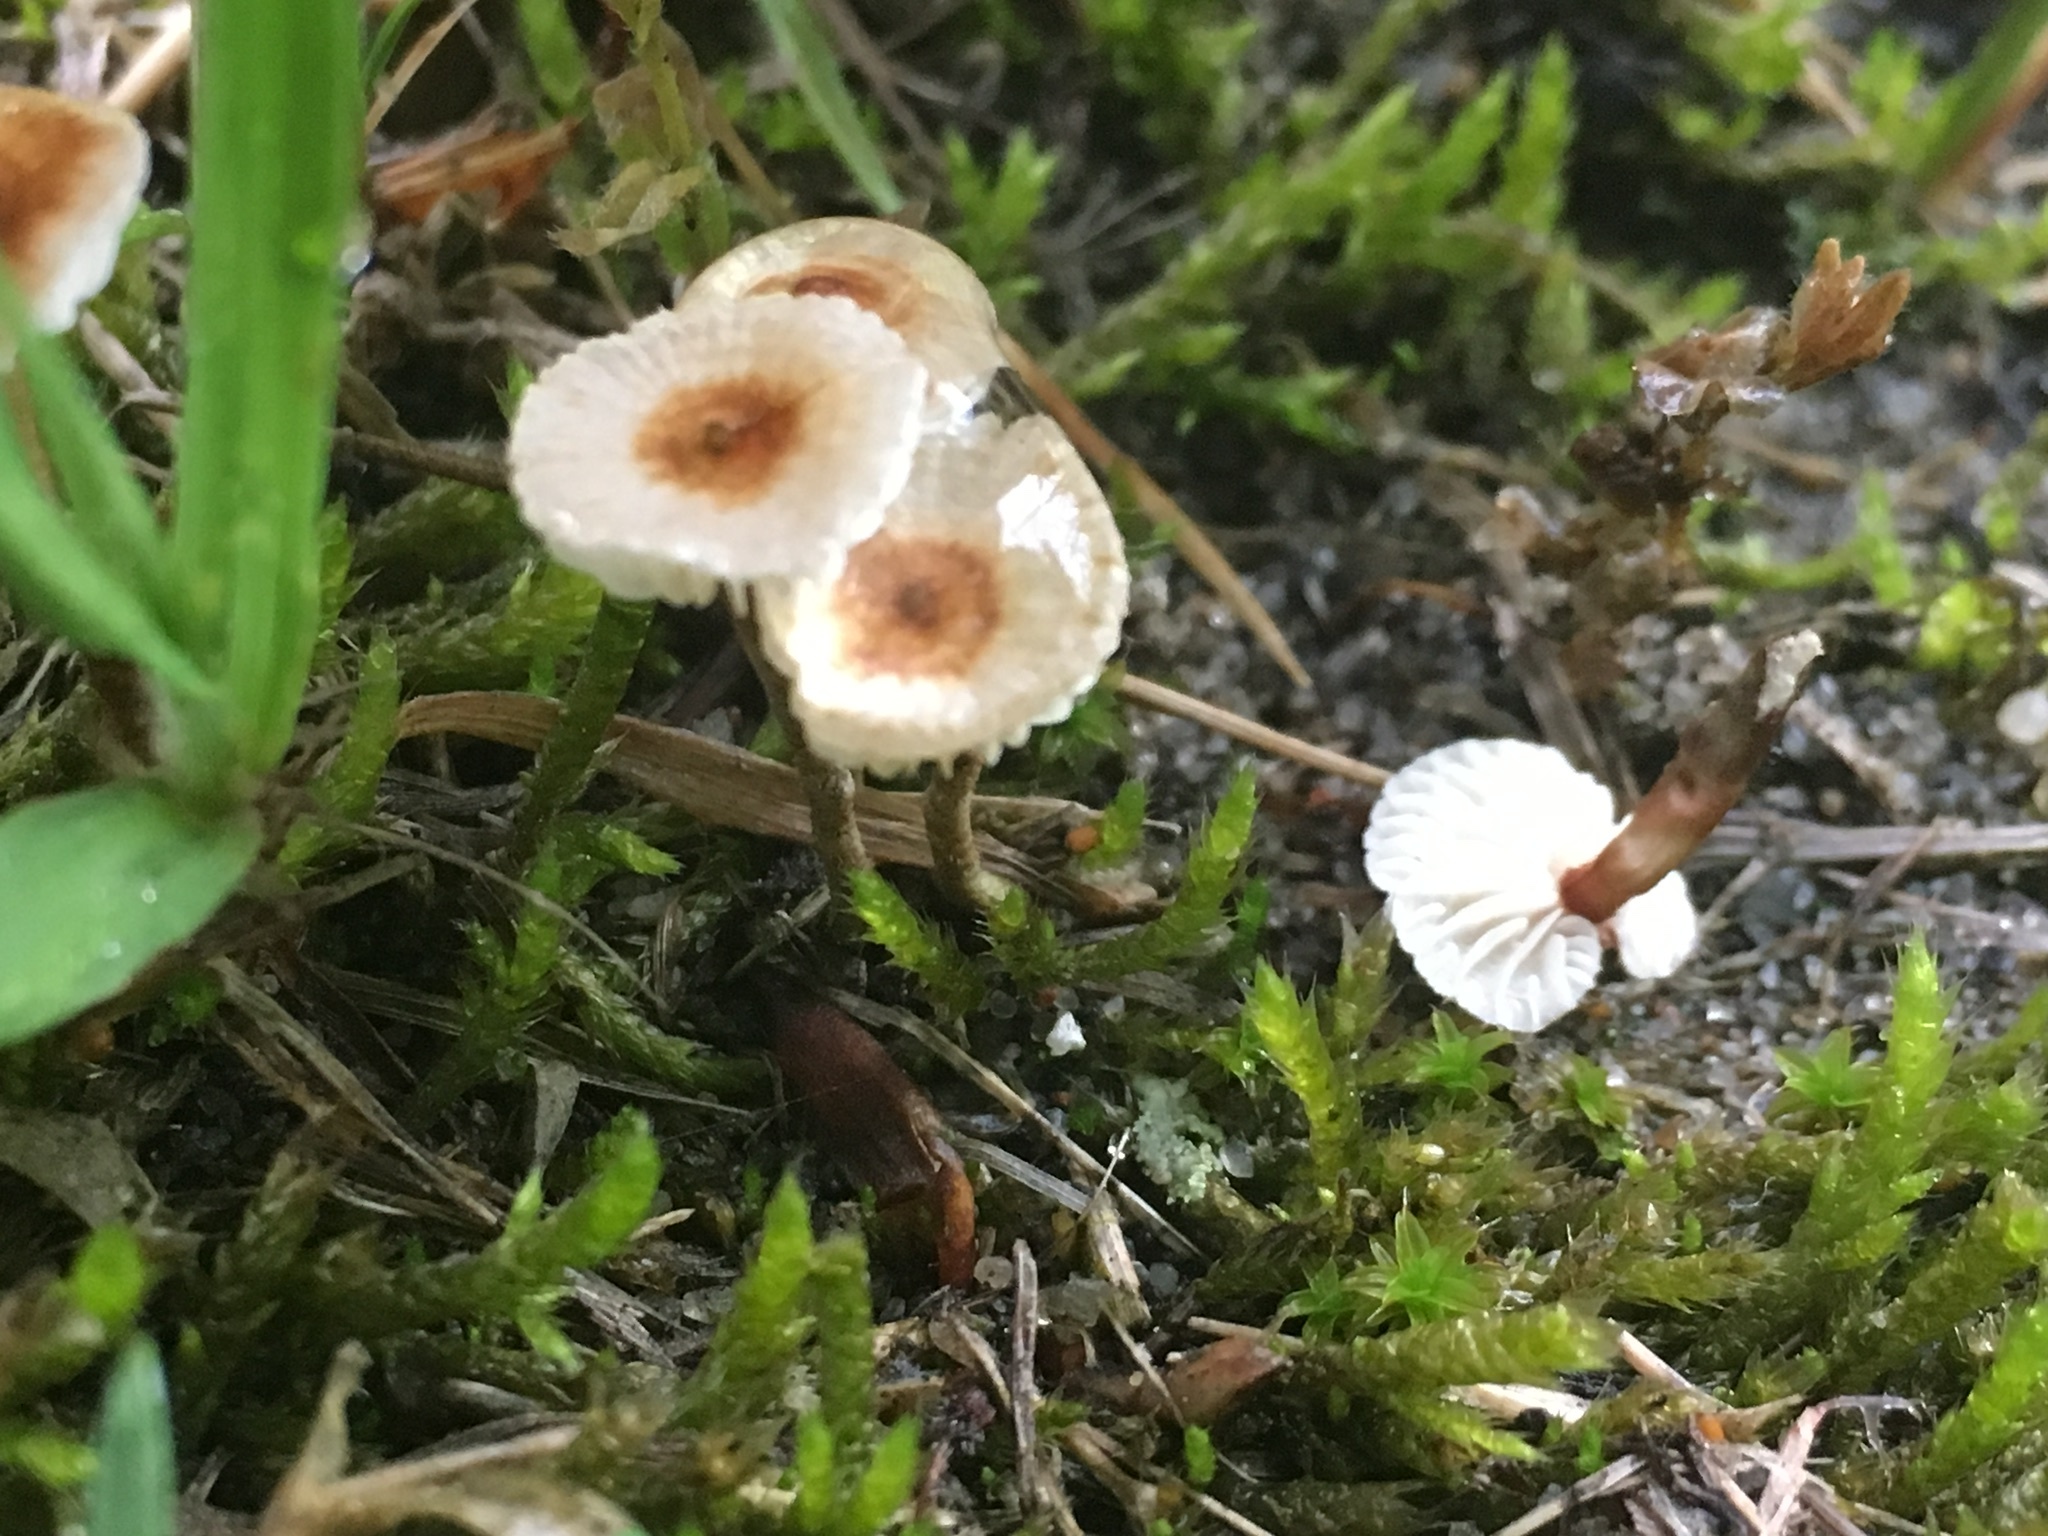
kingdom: Fungi
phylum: Basidiomycota
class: Agaricomycetes
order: Agaricales
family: Marasmiaceae
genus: Crinipellis
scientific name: Crinipellis scabella
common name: Hairy parachute
